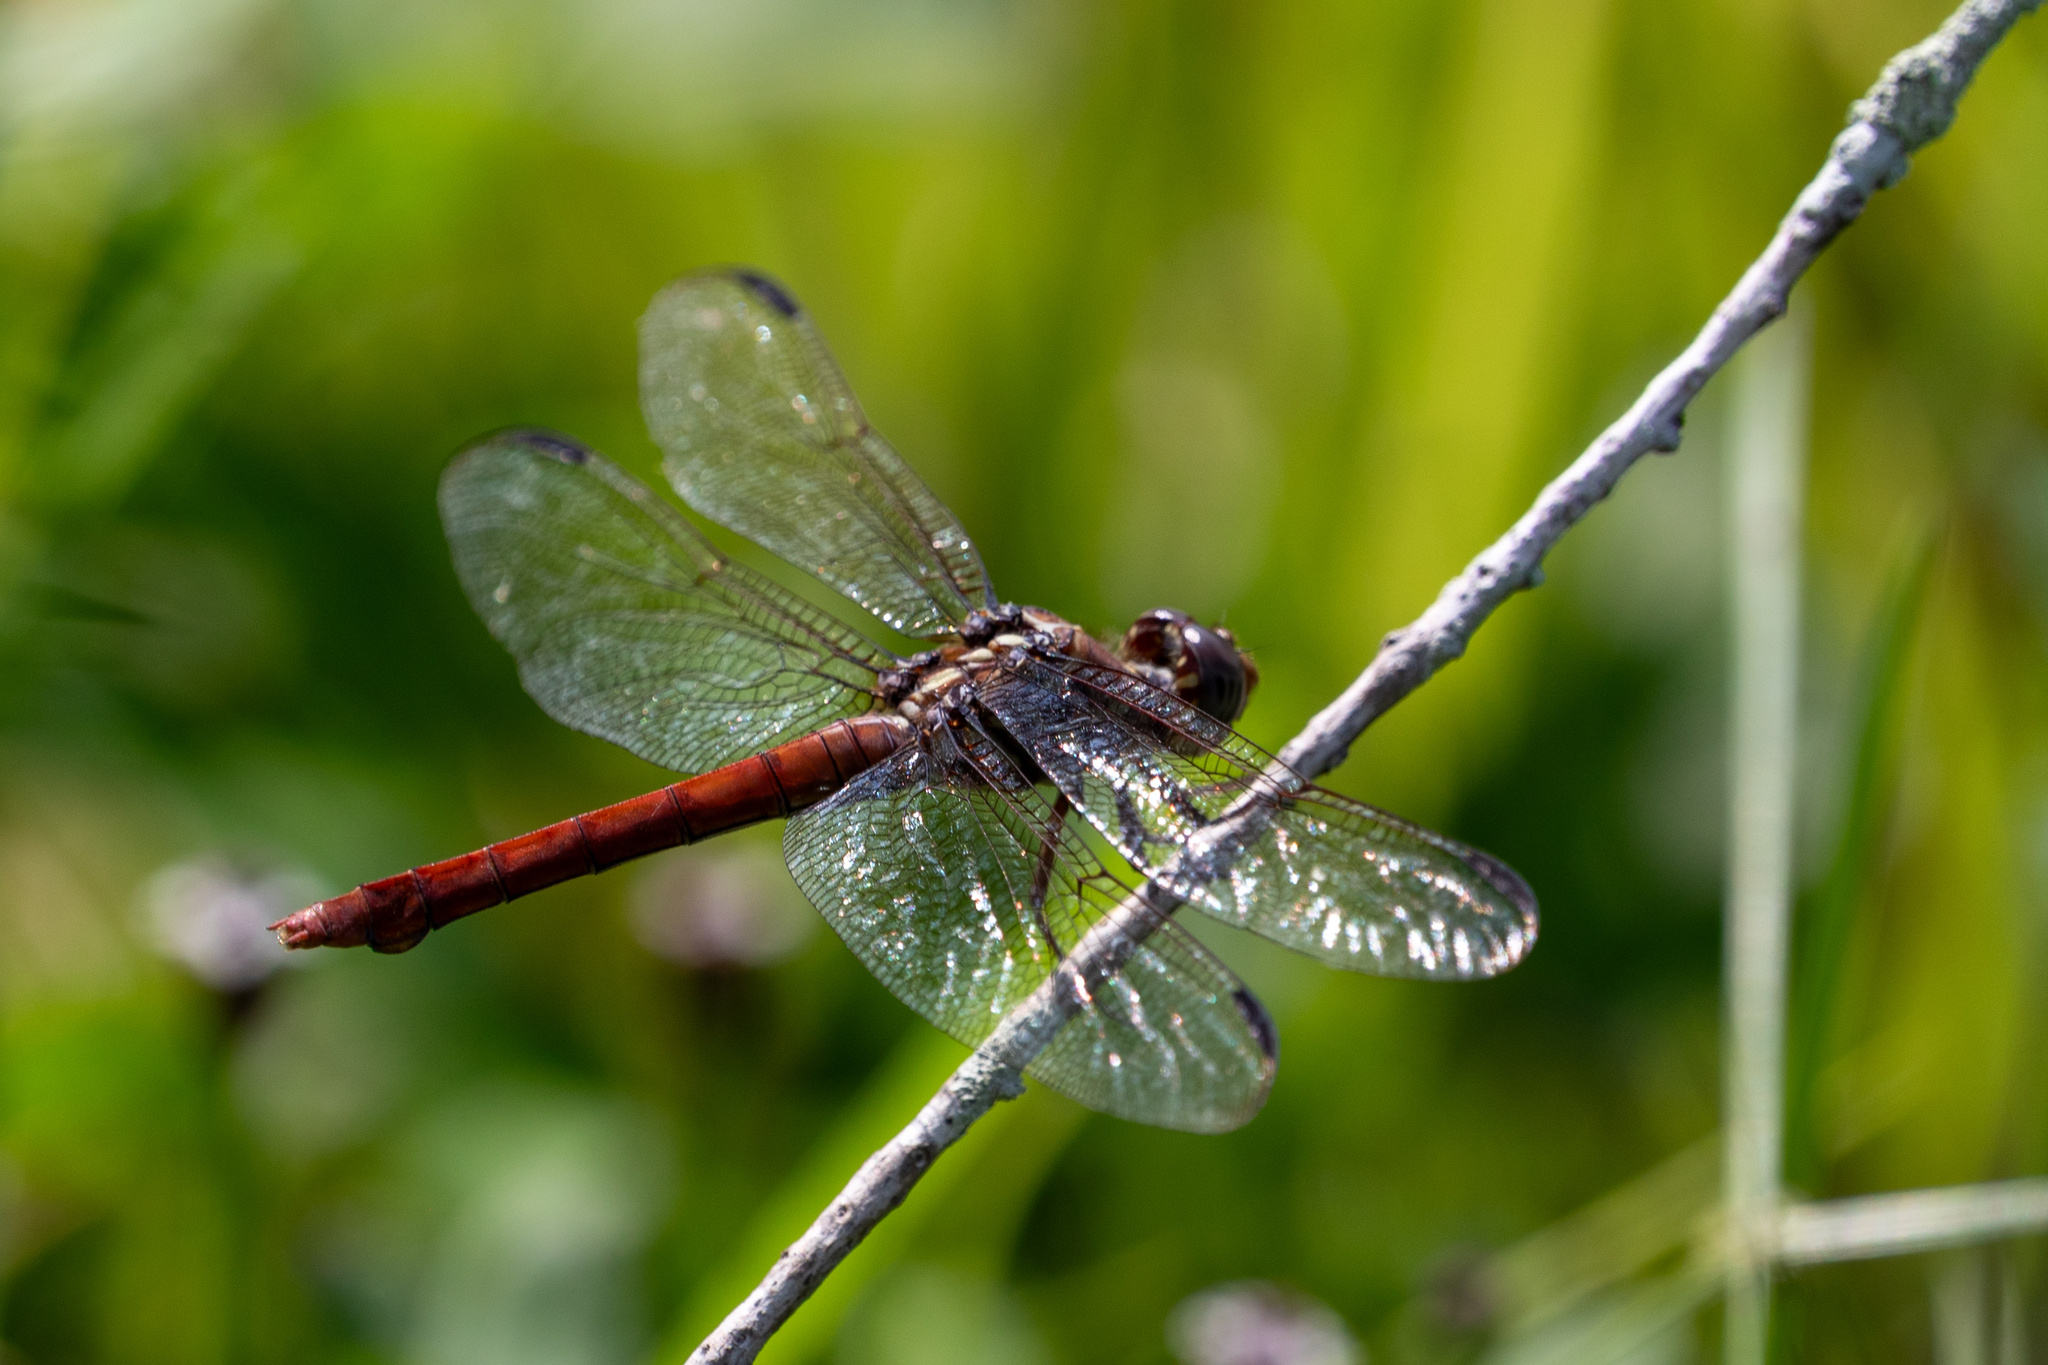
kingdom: Animalia
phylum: Arthropoda
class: Insecta
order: Odonata
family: Libellulidae
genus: Orthemis
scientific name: Orthemis ferruginea
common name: Roseate skimmer
